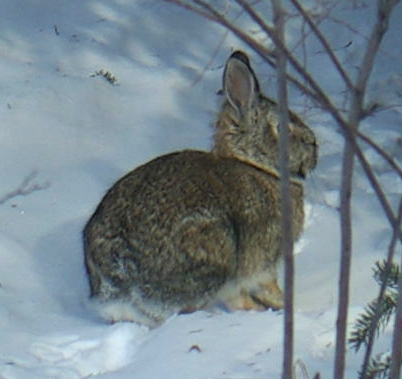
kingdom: Animalia
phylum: Chordata
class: Mammalia
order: Lagomorpha
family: Leporidae
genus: Sylvilagus
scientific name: Sylvilagus floridanus
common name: Eastern cottontail
